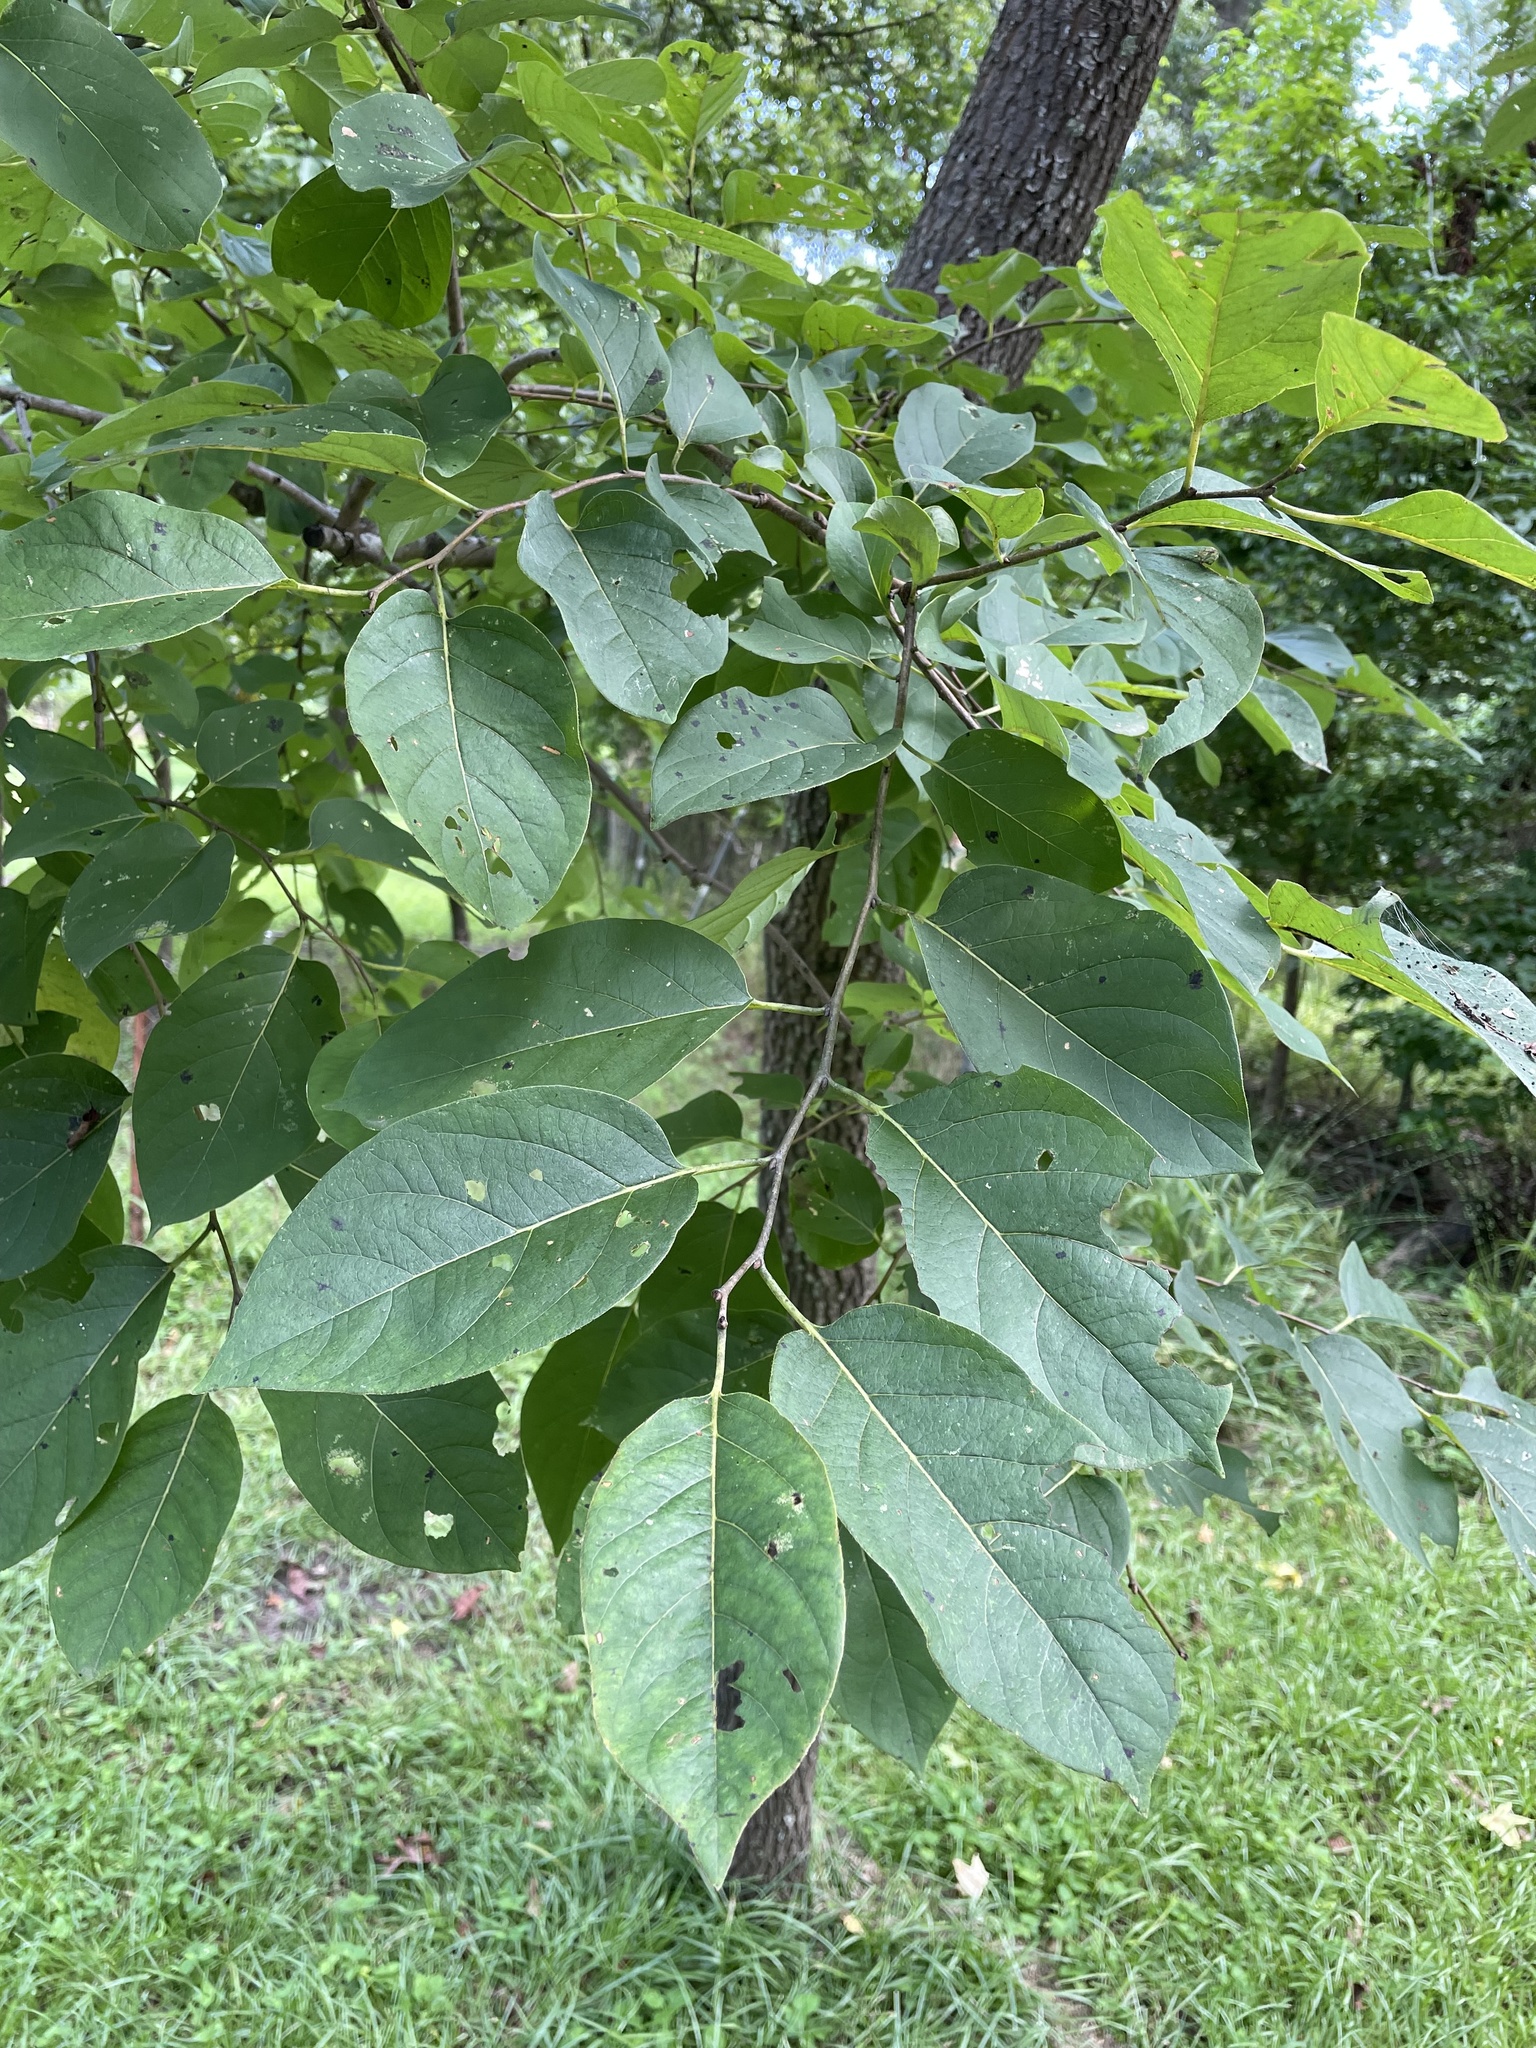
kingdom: Plantae
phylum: Tracheophyta
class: Magnoliopsida
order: Ericales
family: Ebenaceae
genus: Diospyros
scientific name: Diospyros virginiana
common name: Persimmon
